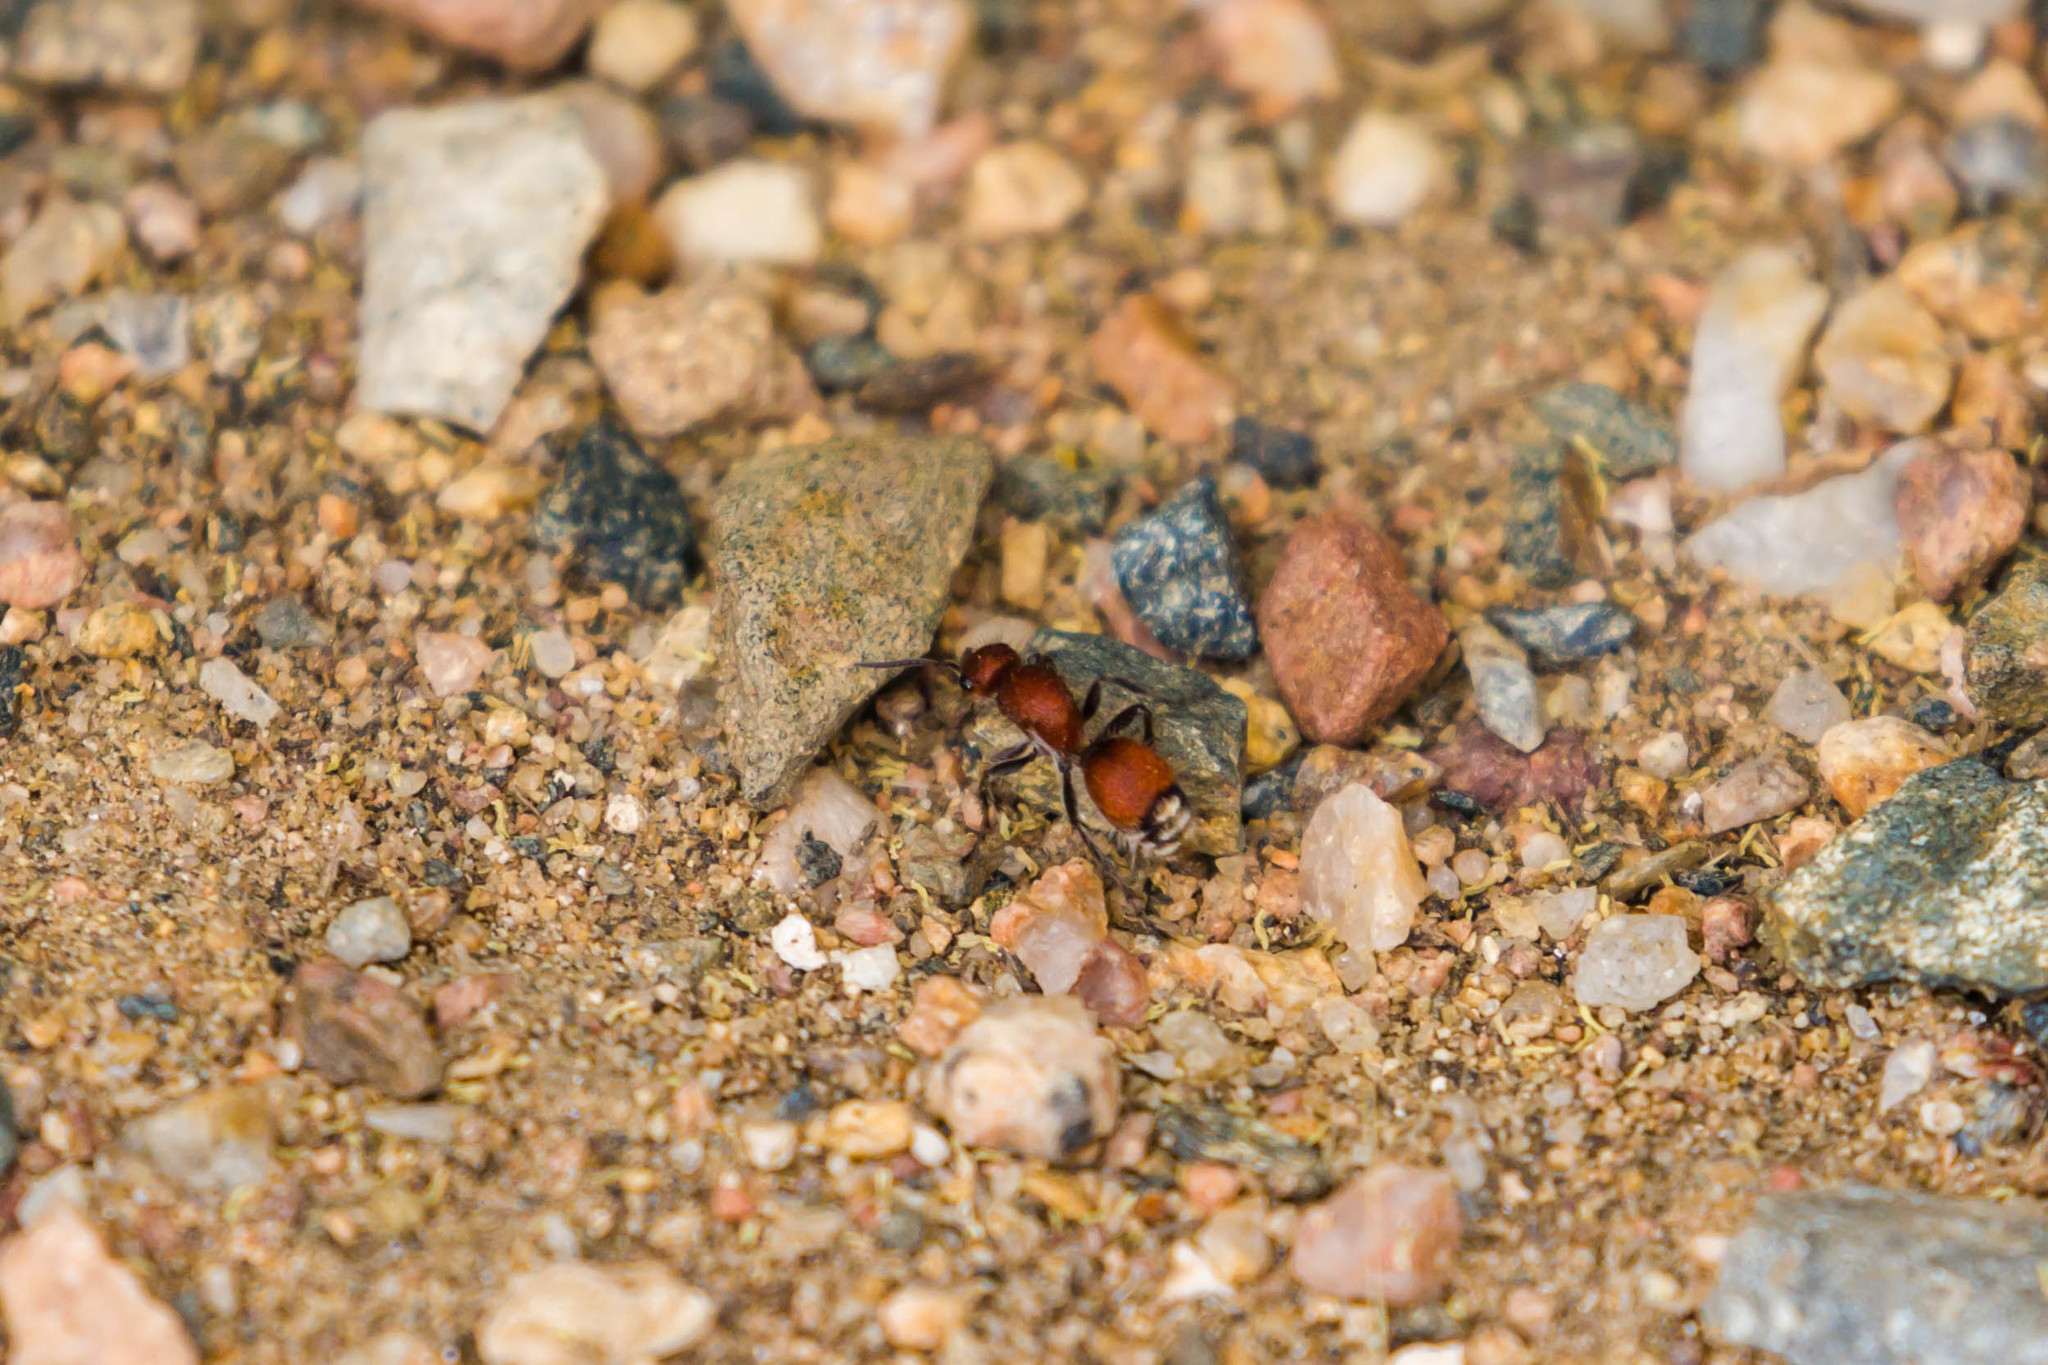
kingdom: Animalia
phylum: Arthropoda
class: Insecta
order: Hymenoptera
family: Mutillidae
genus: Dasymutilla
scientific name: Dasymutilla
